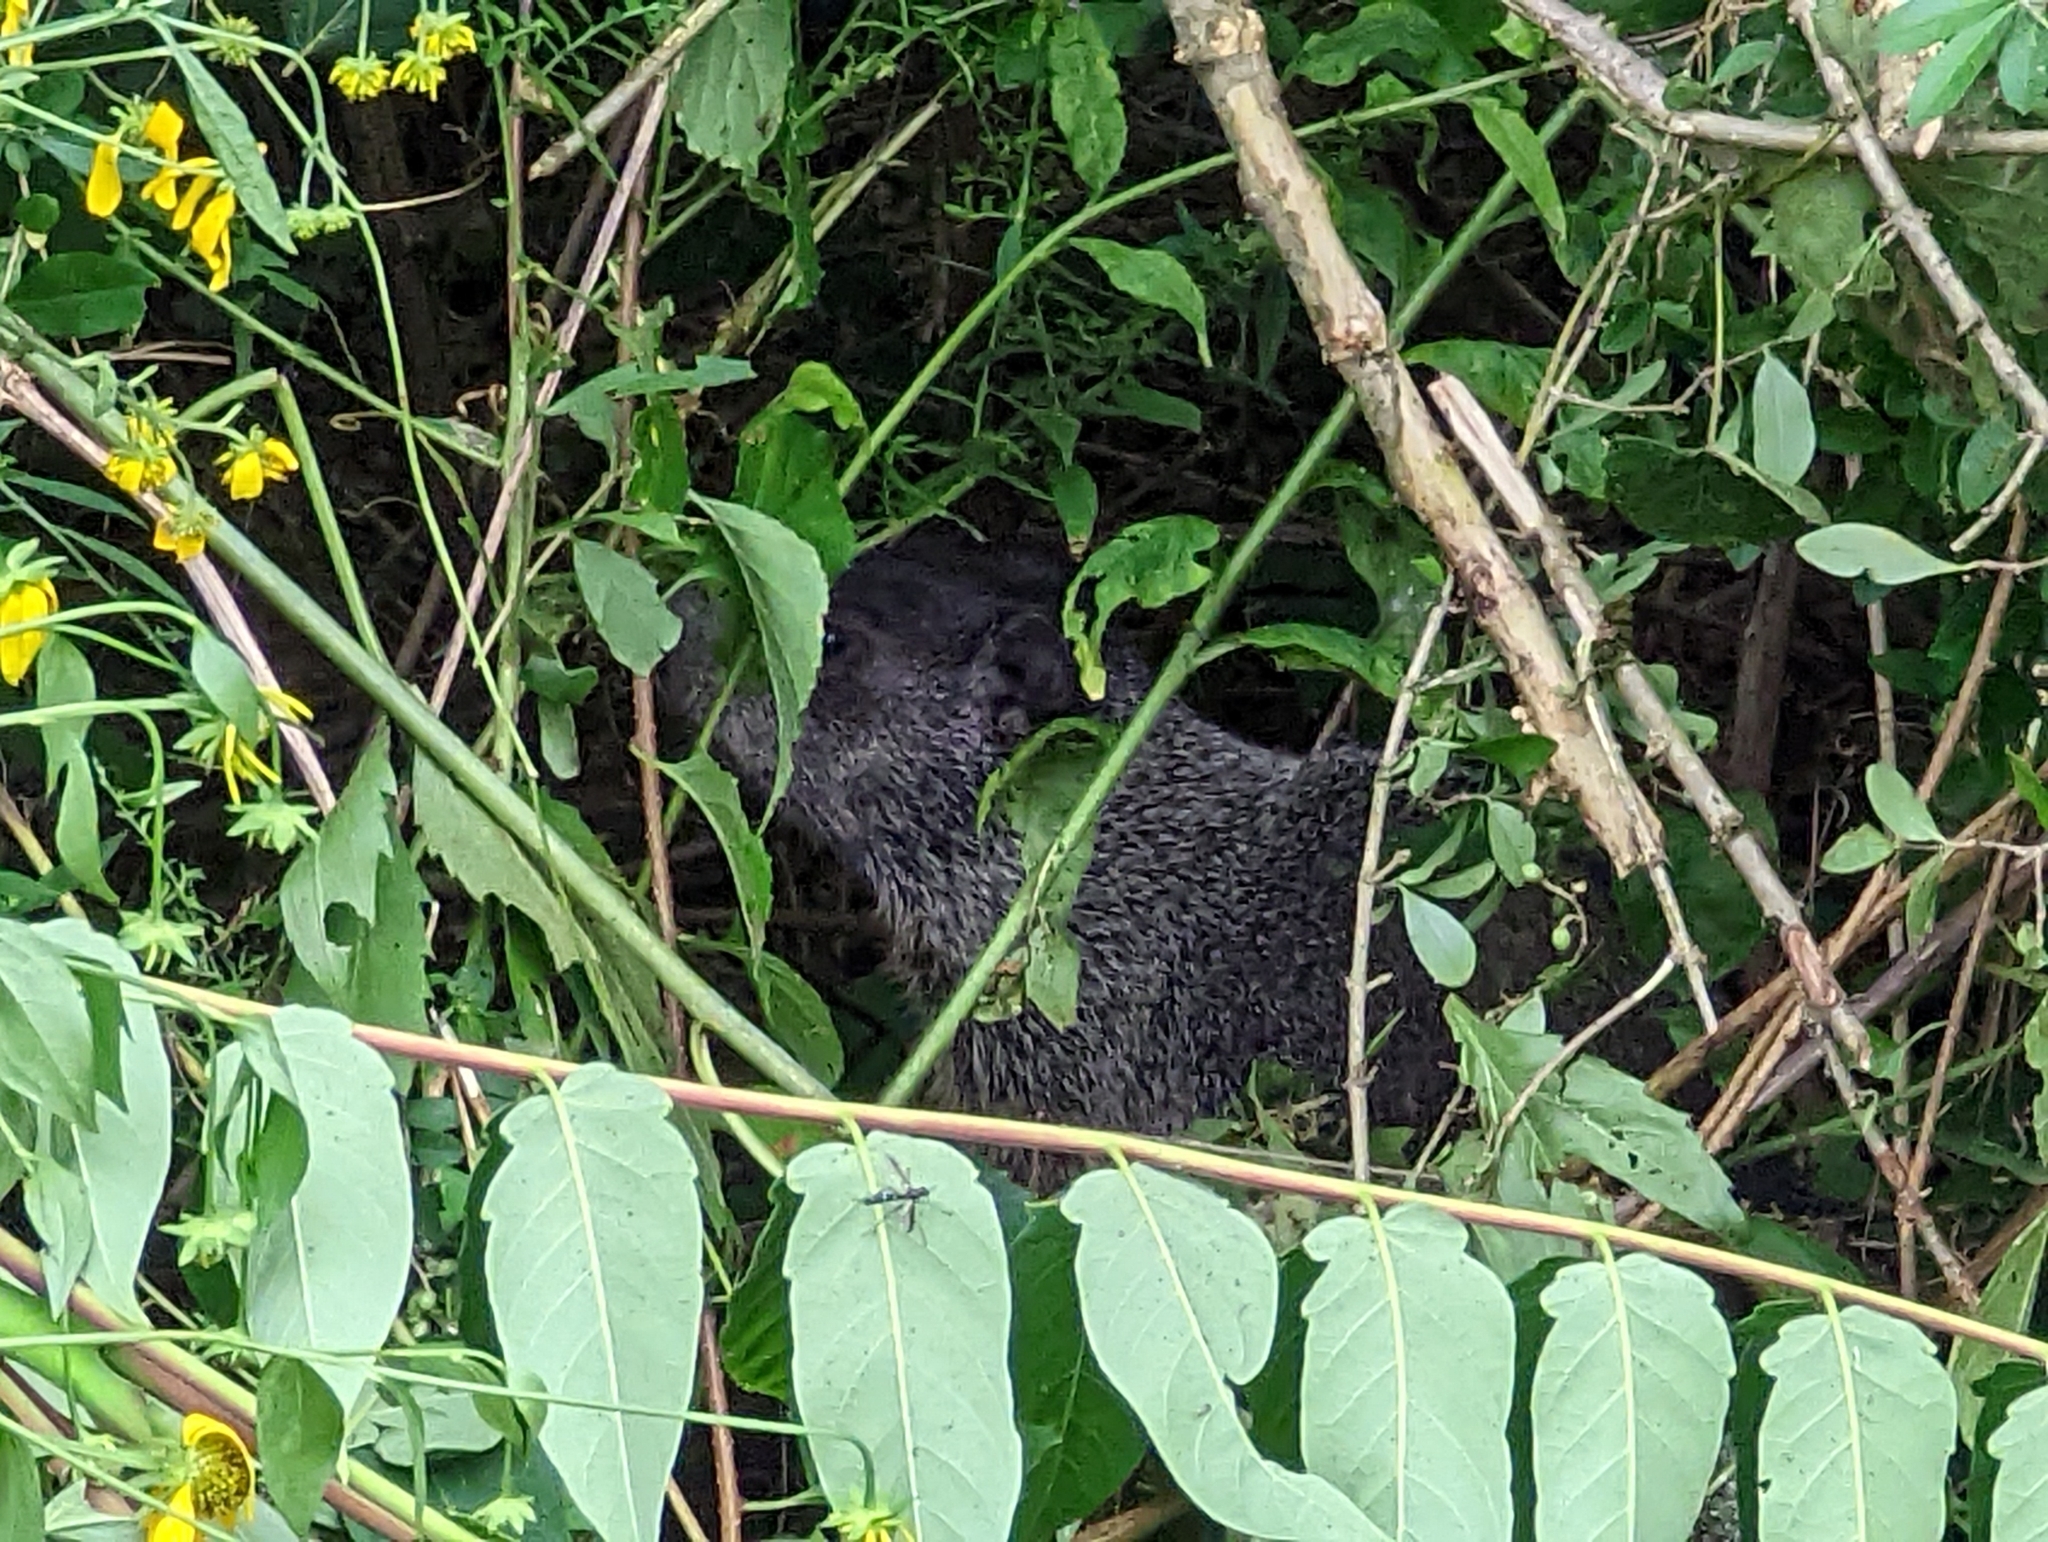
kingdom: Animalia
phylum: Chordata
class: Mammalia
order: Rodentia
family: Sciuridae
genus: Marmota
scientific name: Marmota monax
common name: Groundhog
